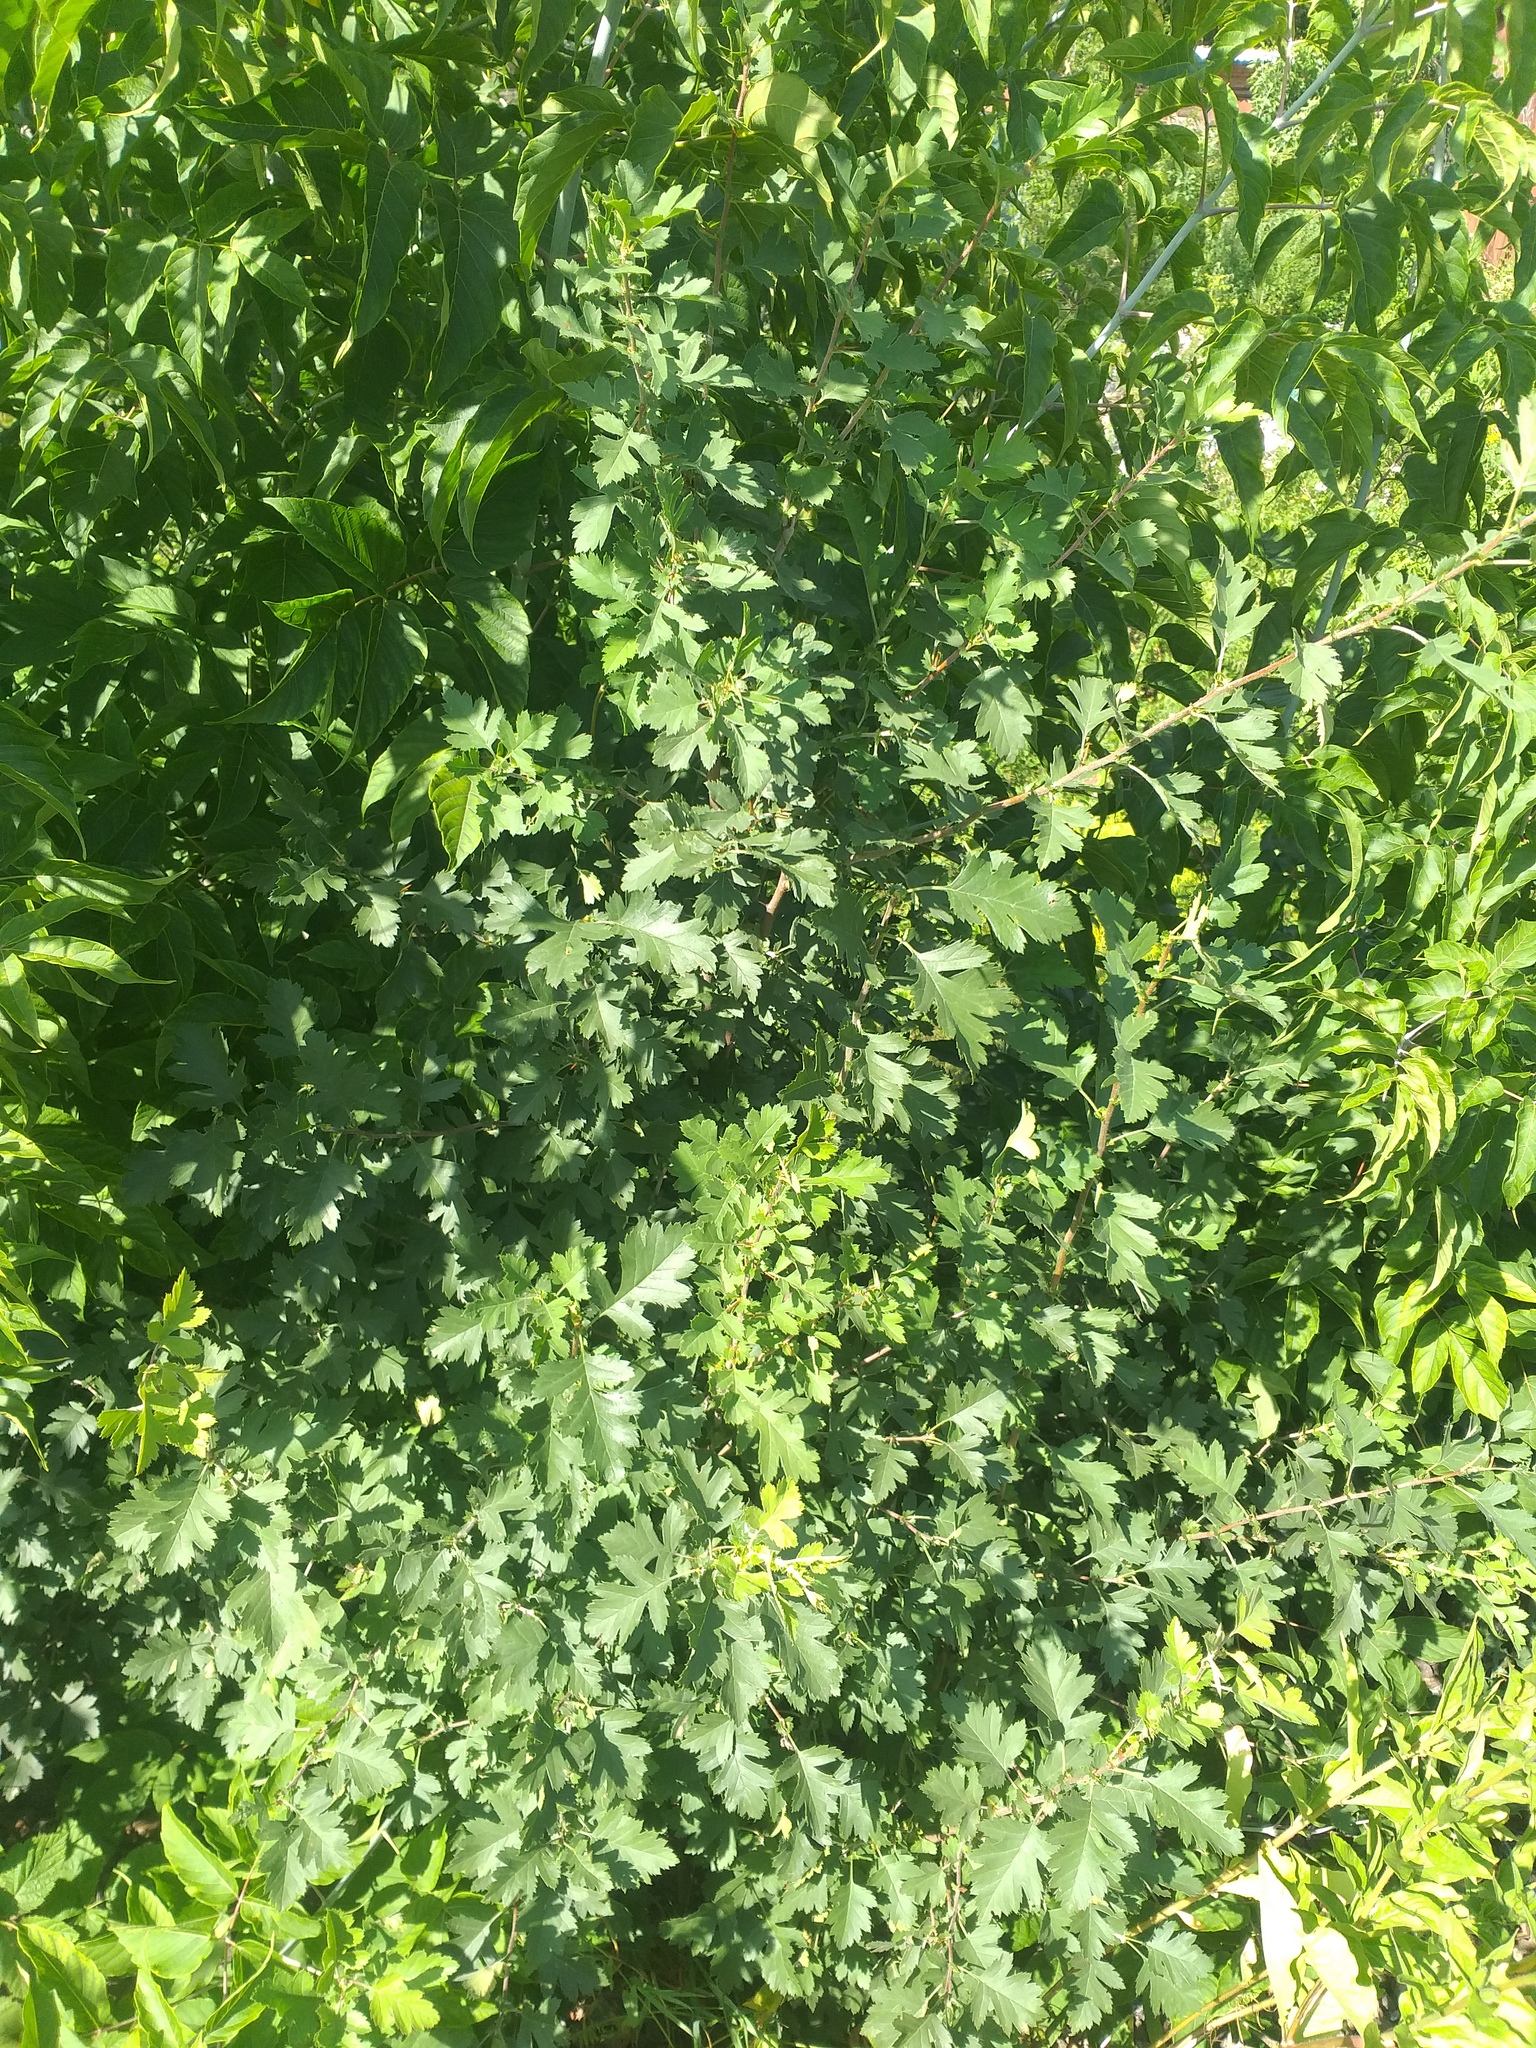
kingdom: Plantae
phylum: Tracheophyta
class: Magnoliopsida
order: Rosales
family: Rosaceae
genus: Crataegus
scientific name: Crataegus nigra
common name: Hungarian thorn
